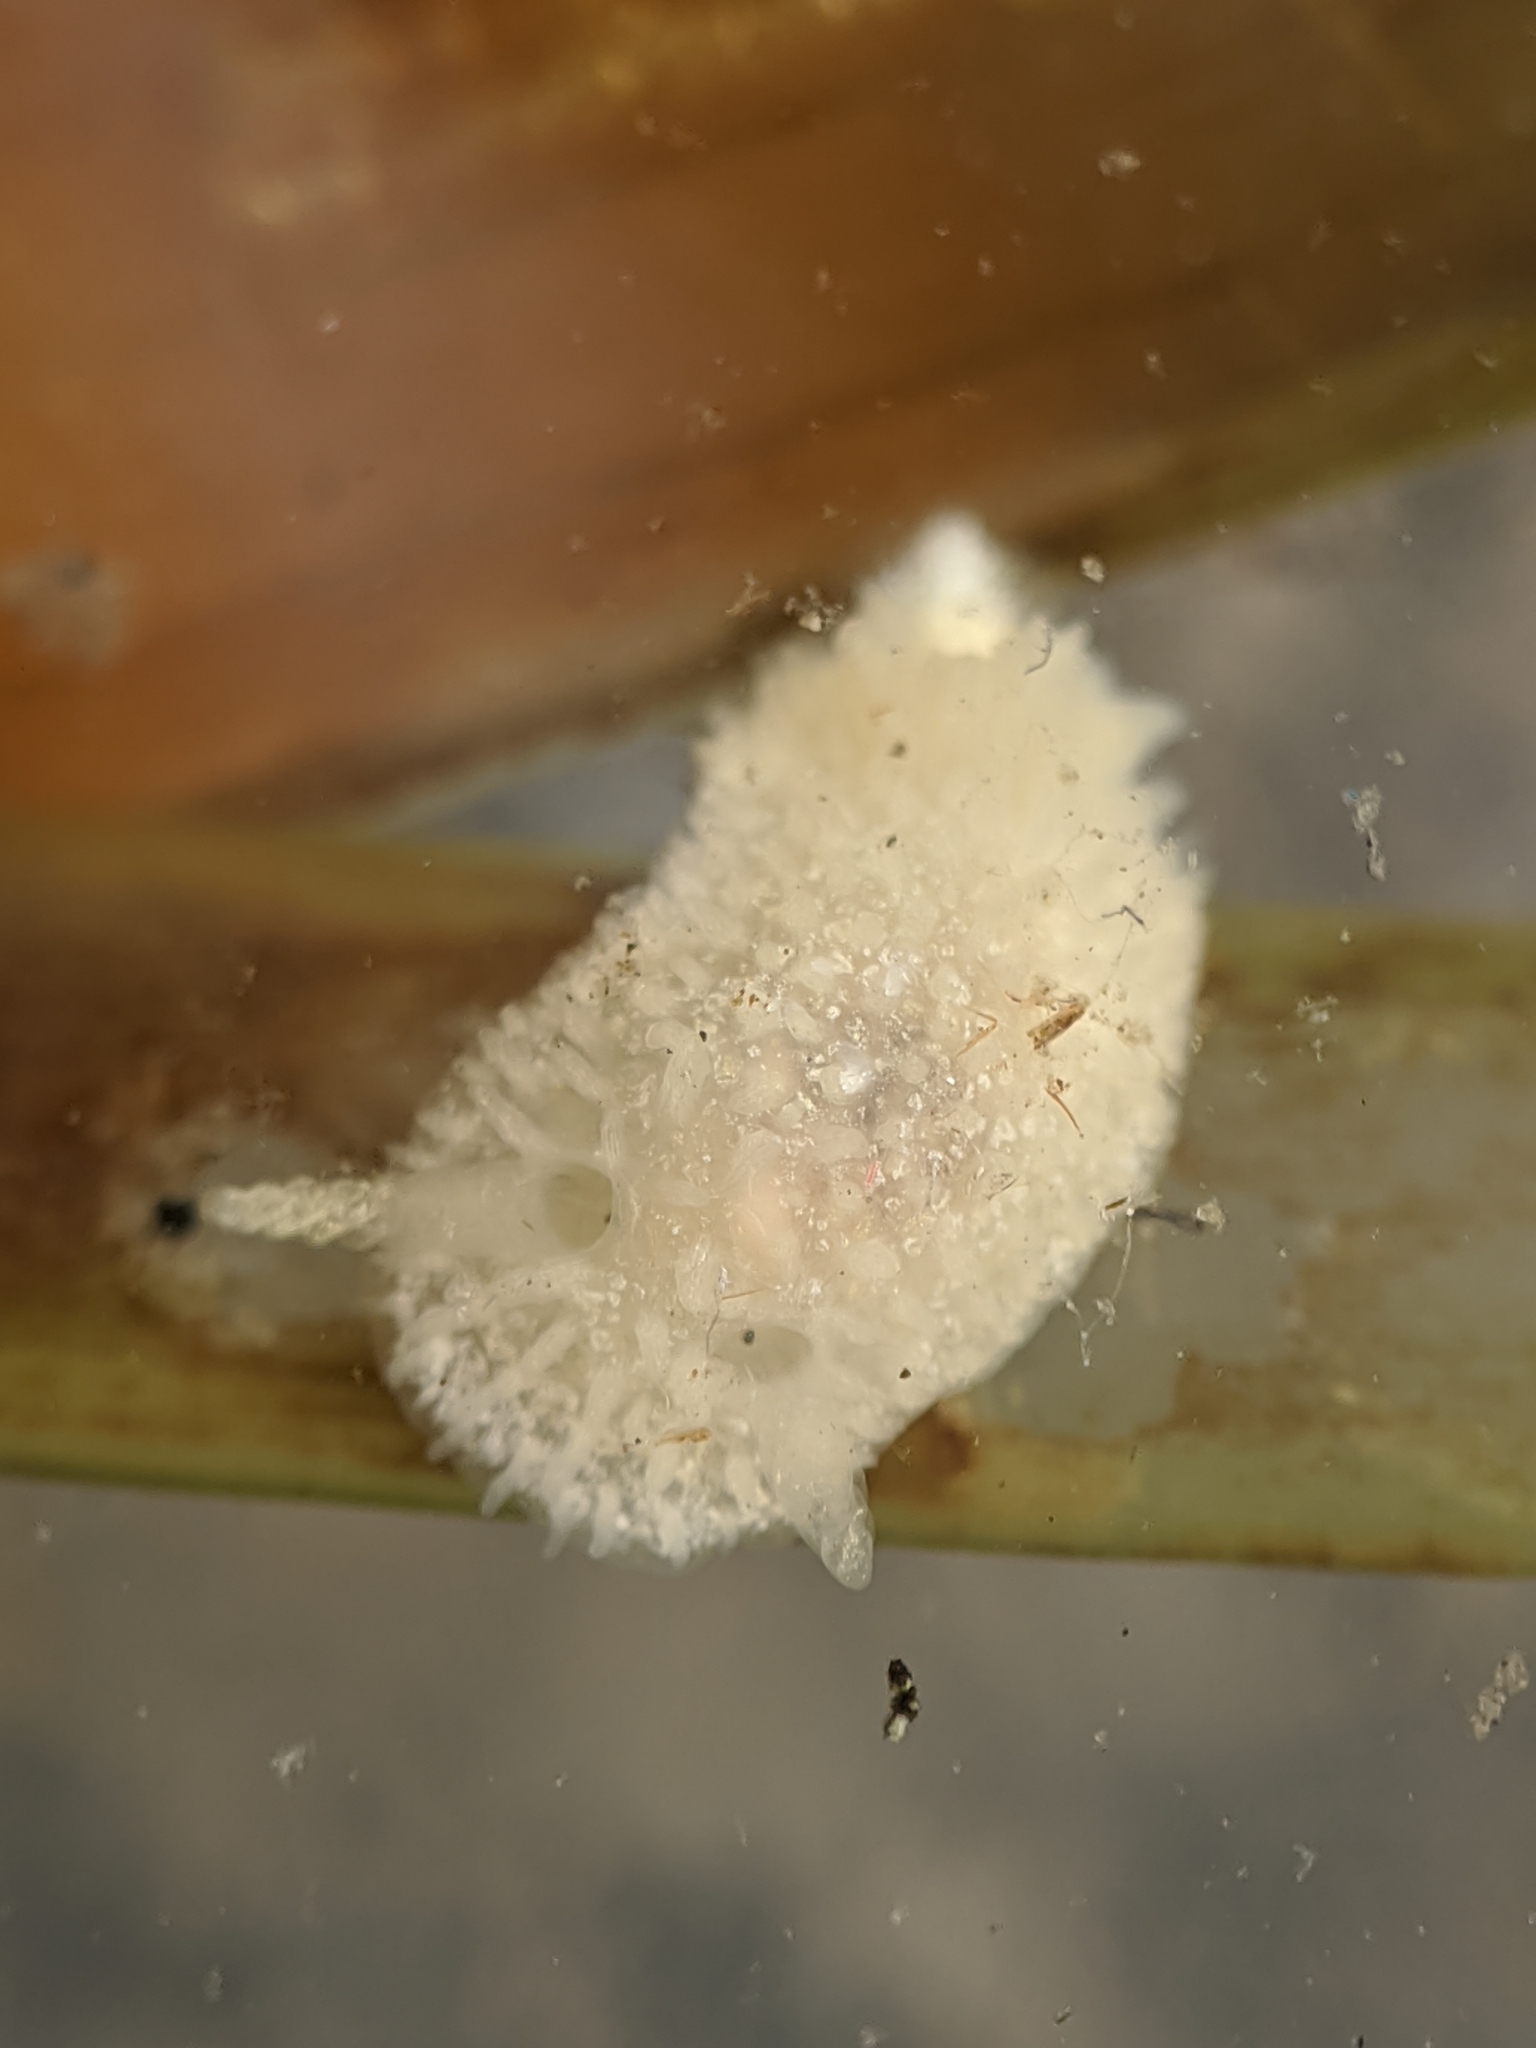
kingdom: Animalia
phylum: Mollusca
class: Gastropoda
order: Nudibranchia
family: Calycidorididae
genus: Diaphorodoris
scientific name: Diaphorodoris lirulatocauda
